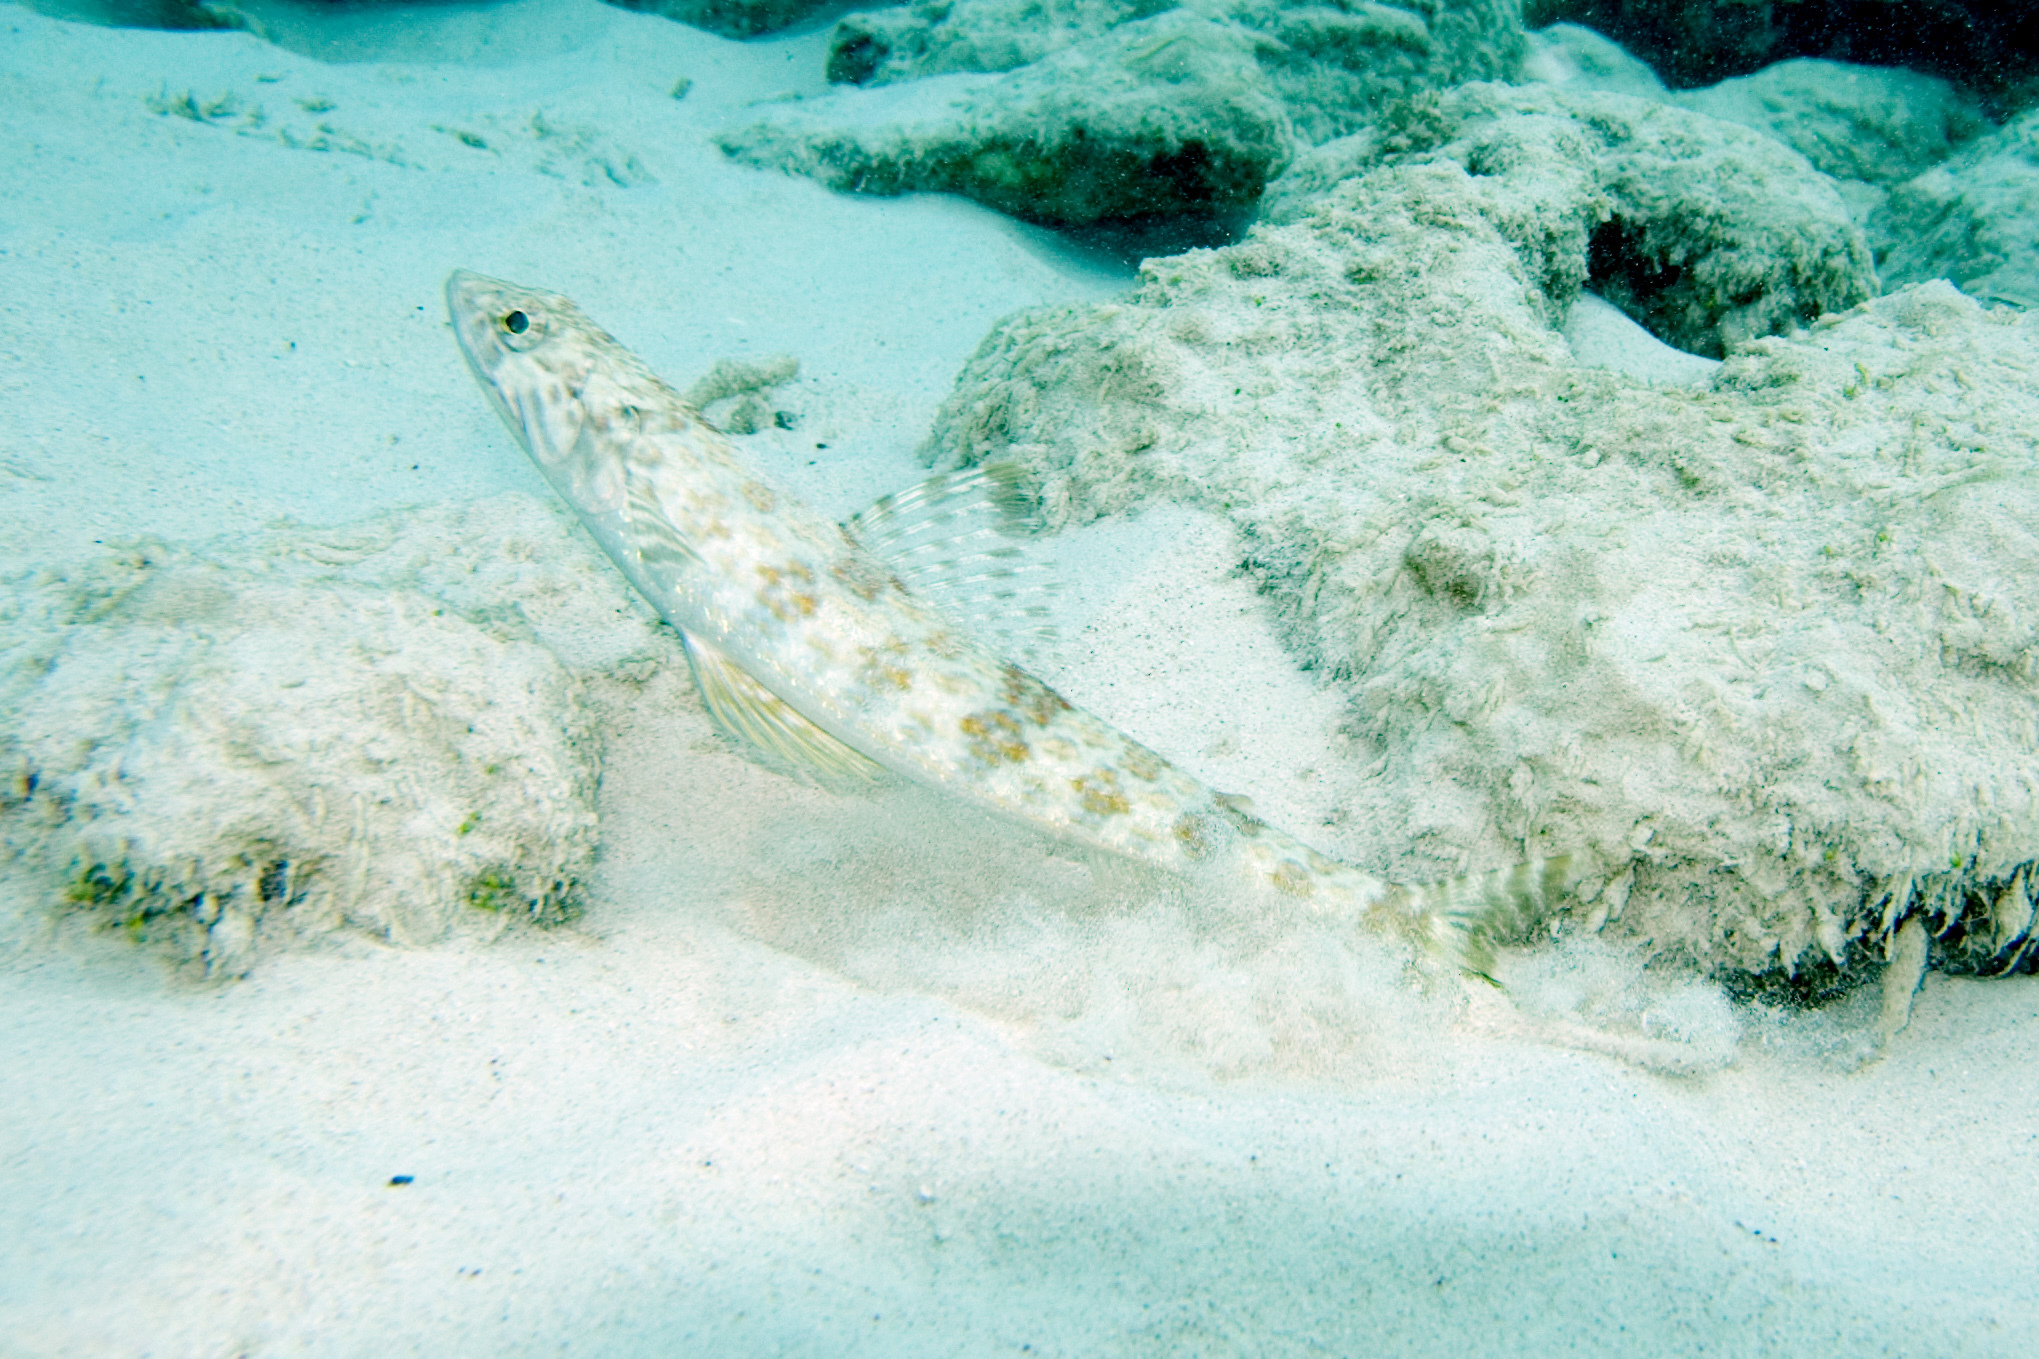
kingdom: Animalia
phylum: Chordata
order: Aulopiformes
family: Synodontidae
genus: Synodus
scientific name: Synodus intermedius
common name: Sand diver
